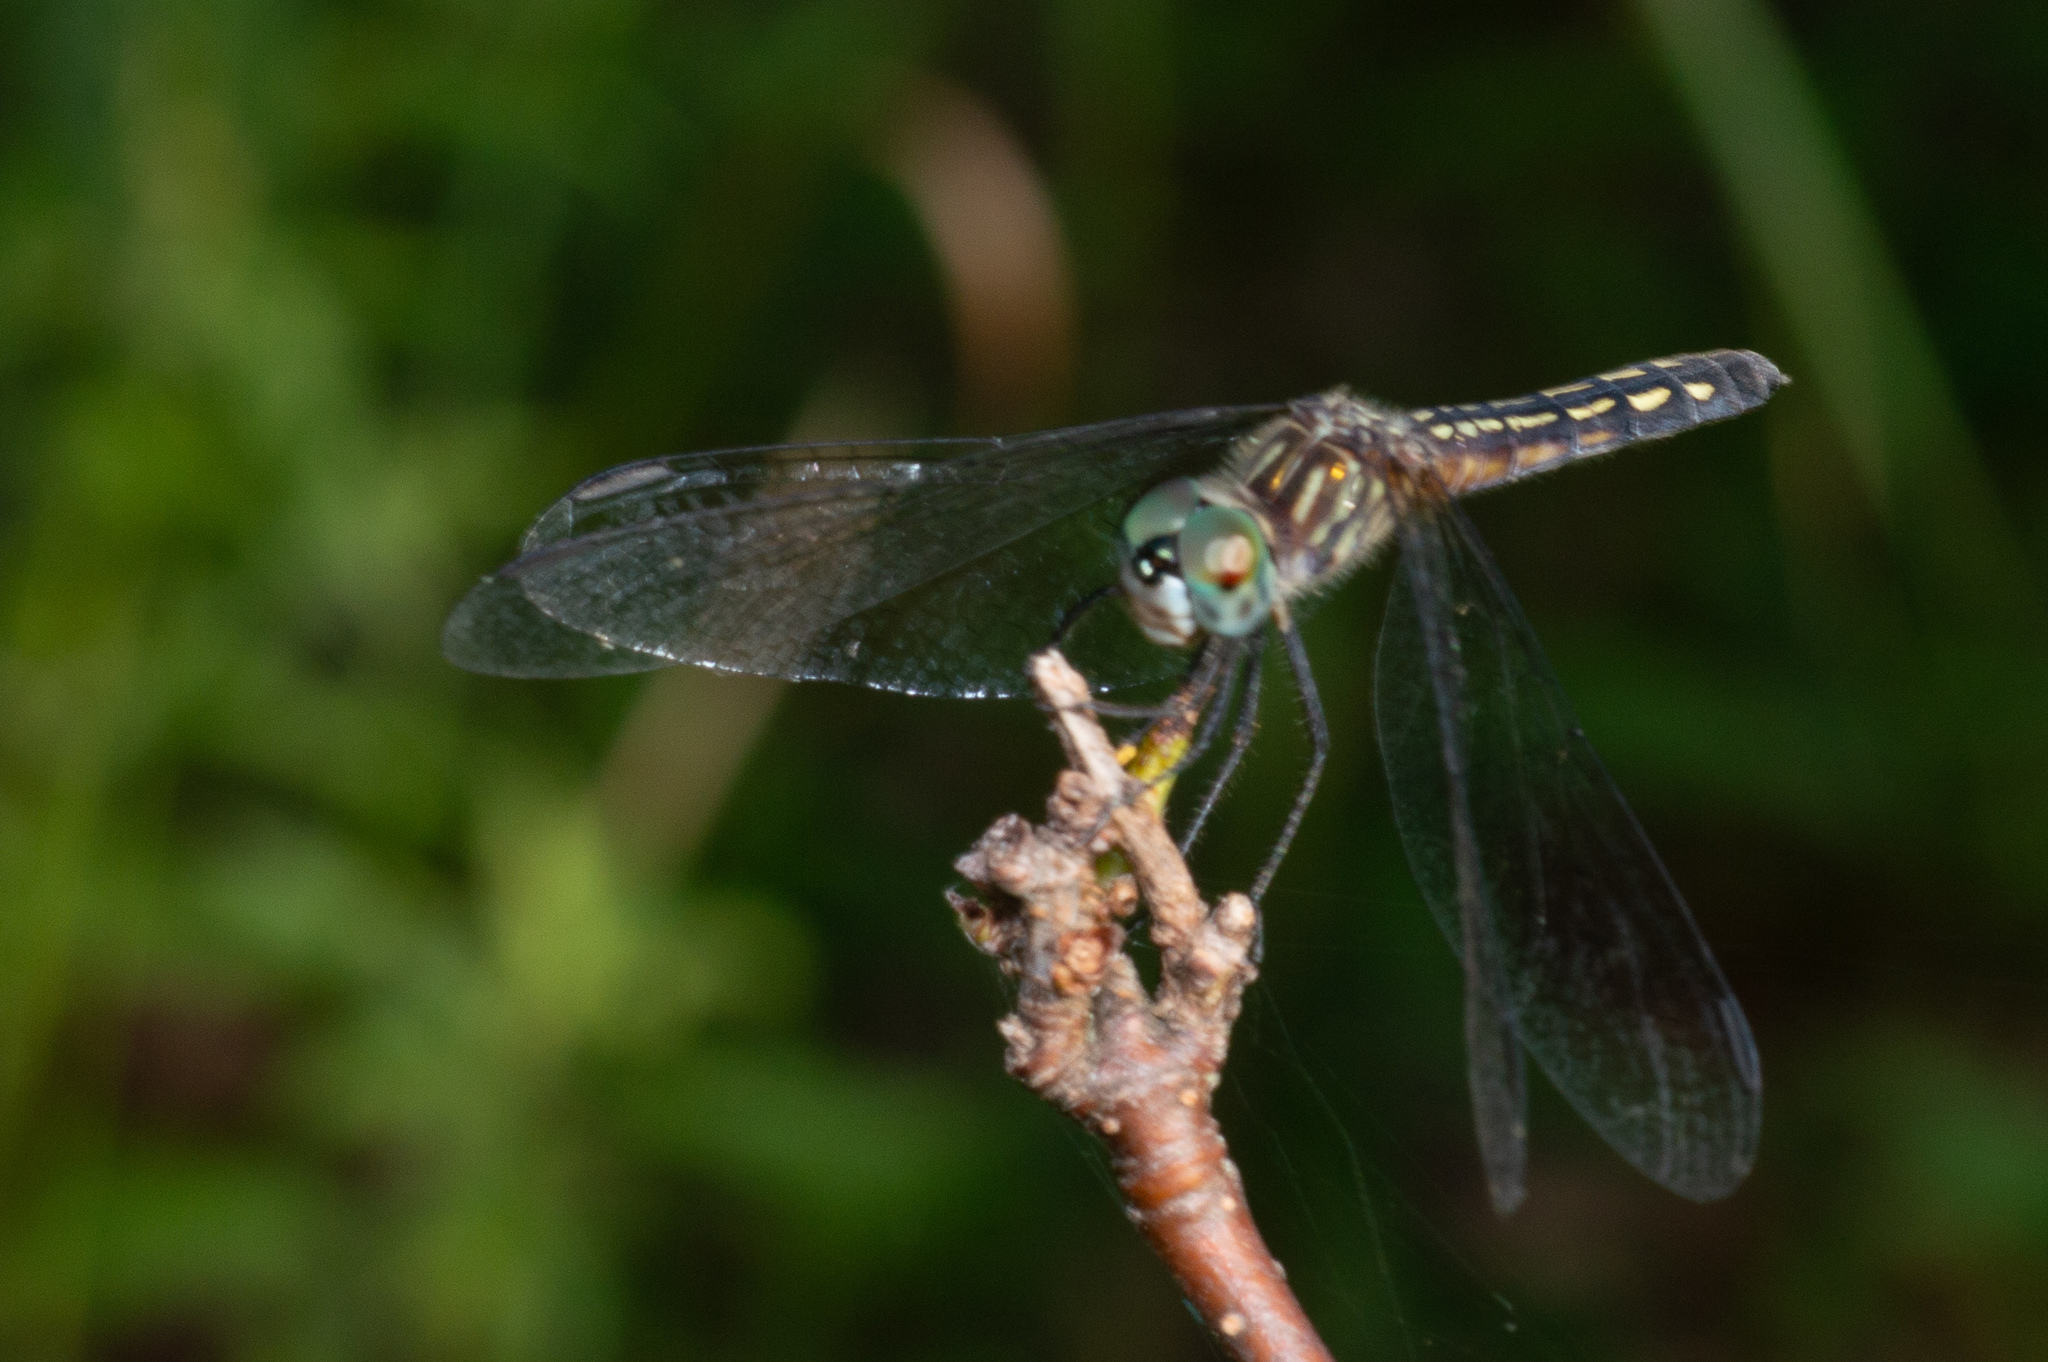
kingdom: Animalia
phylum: Arthropoda
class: Insecta
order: Odonata
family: Libellulidae
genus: Pachydiplax
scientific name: Pachydiplax longipennis
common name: Blue dasher
